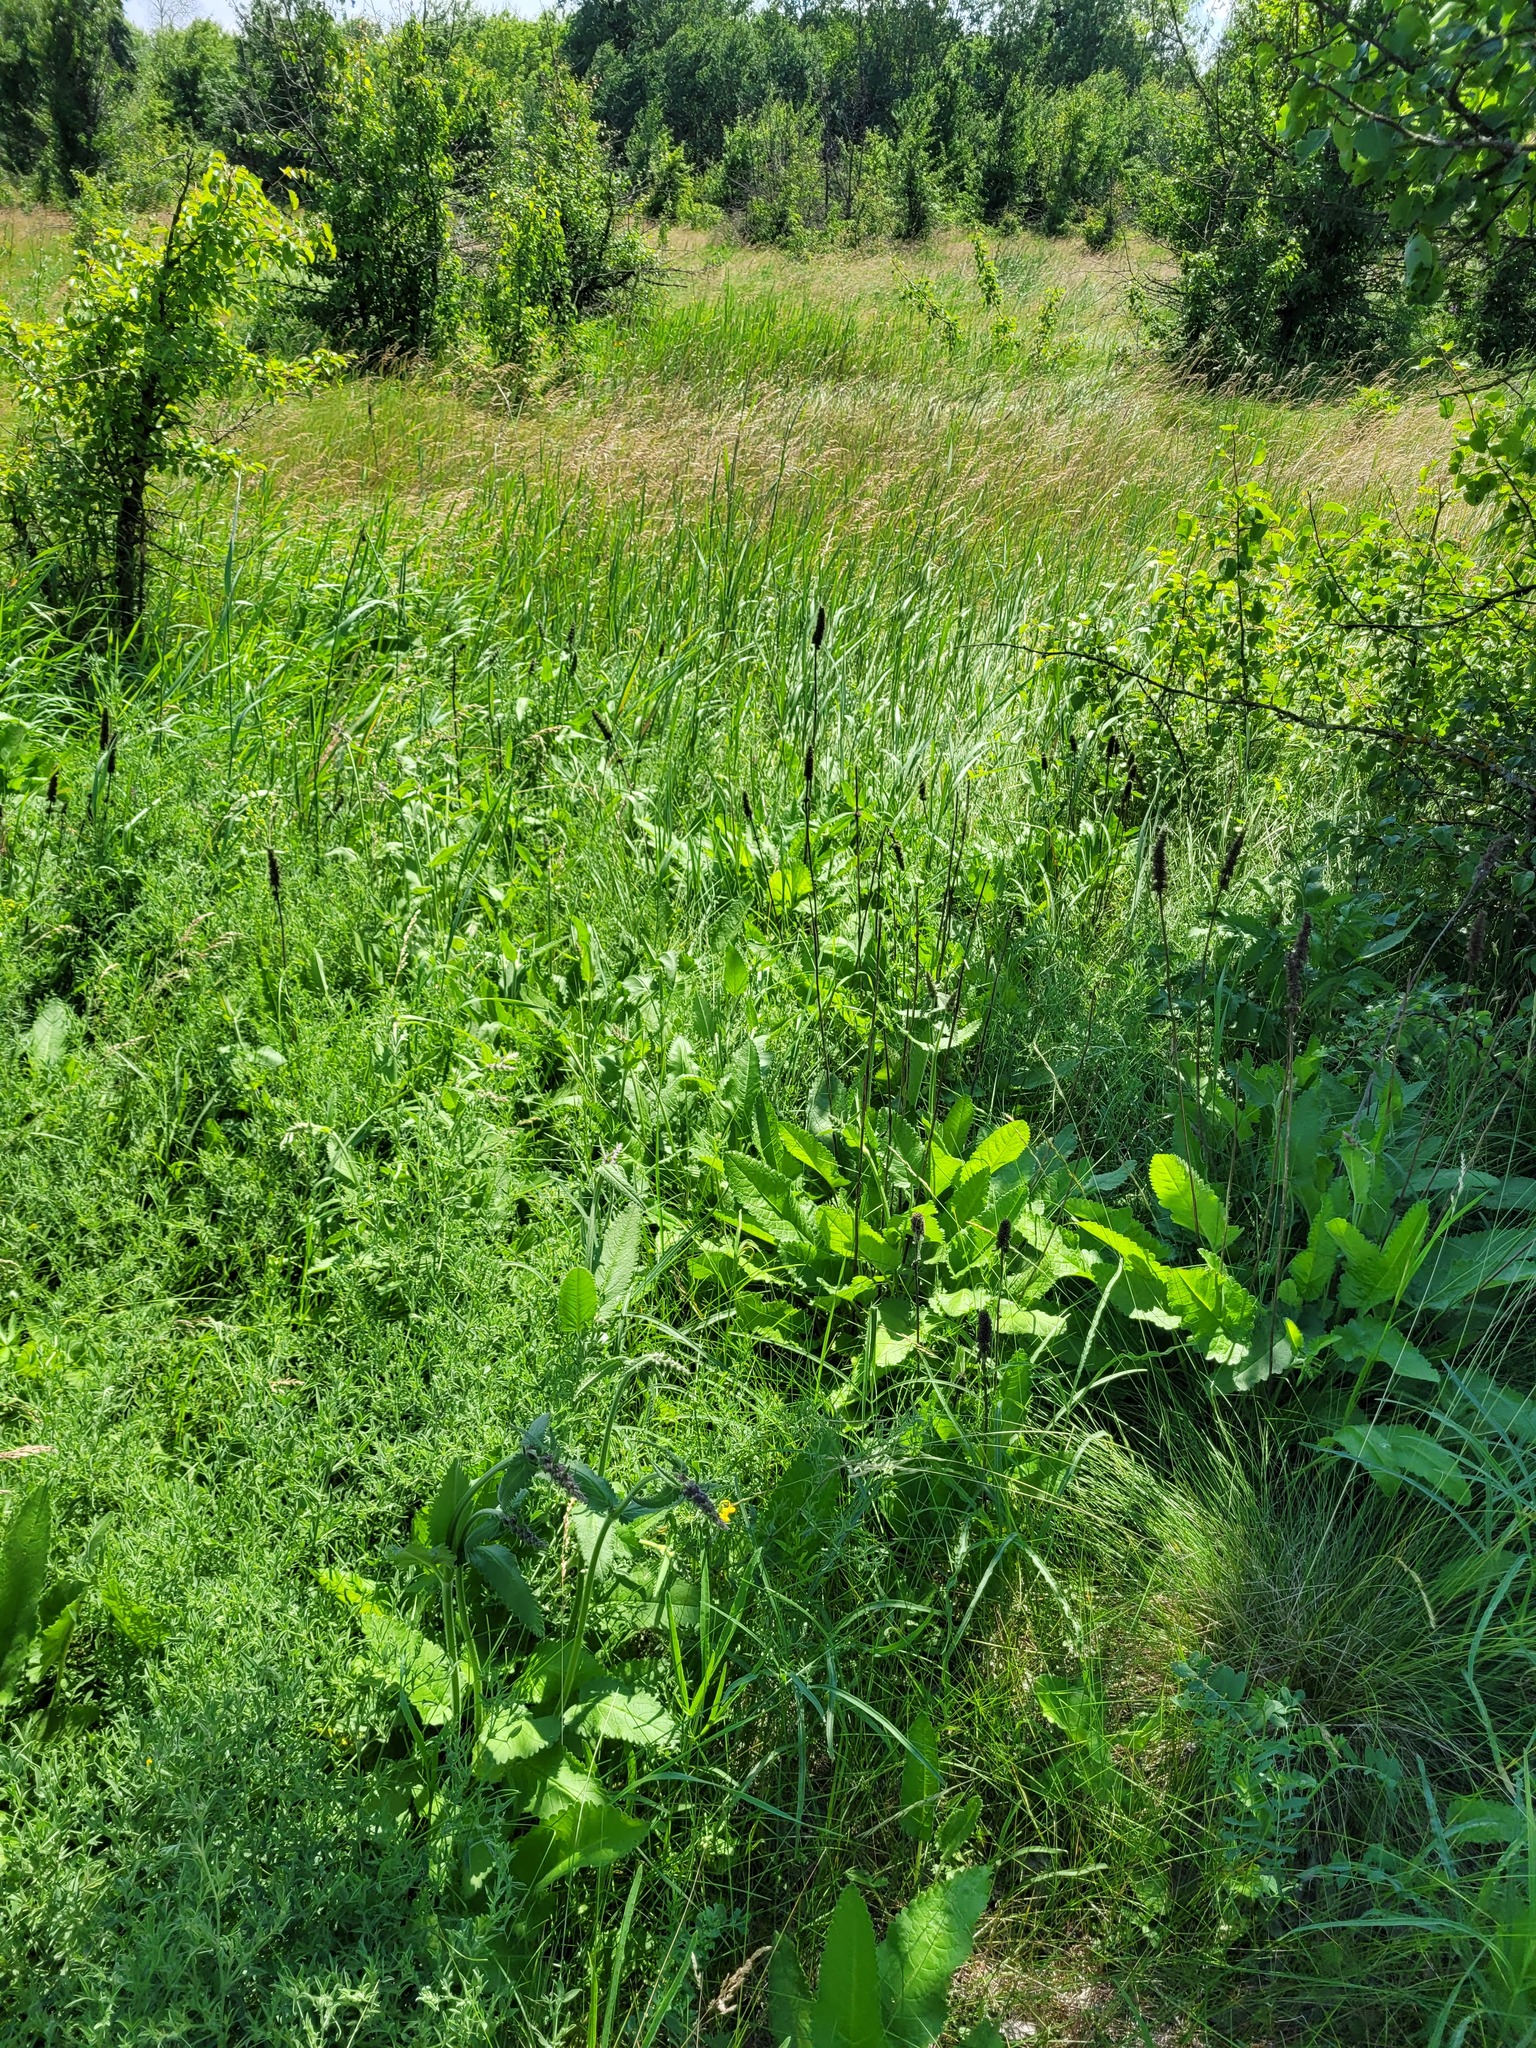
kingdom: Plantae
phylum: Tracheophyta
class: Magnoliopsida
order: Lamiales
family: Lamiaceae
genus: Betonica
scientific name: Betonica officinalis
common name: Bishop's-wort
